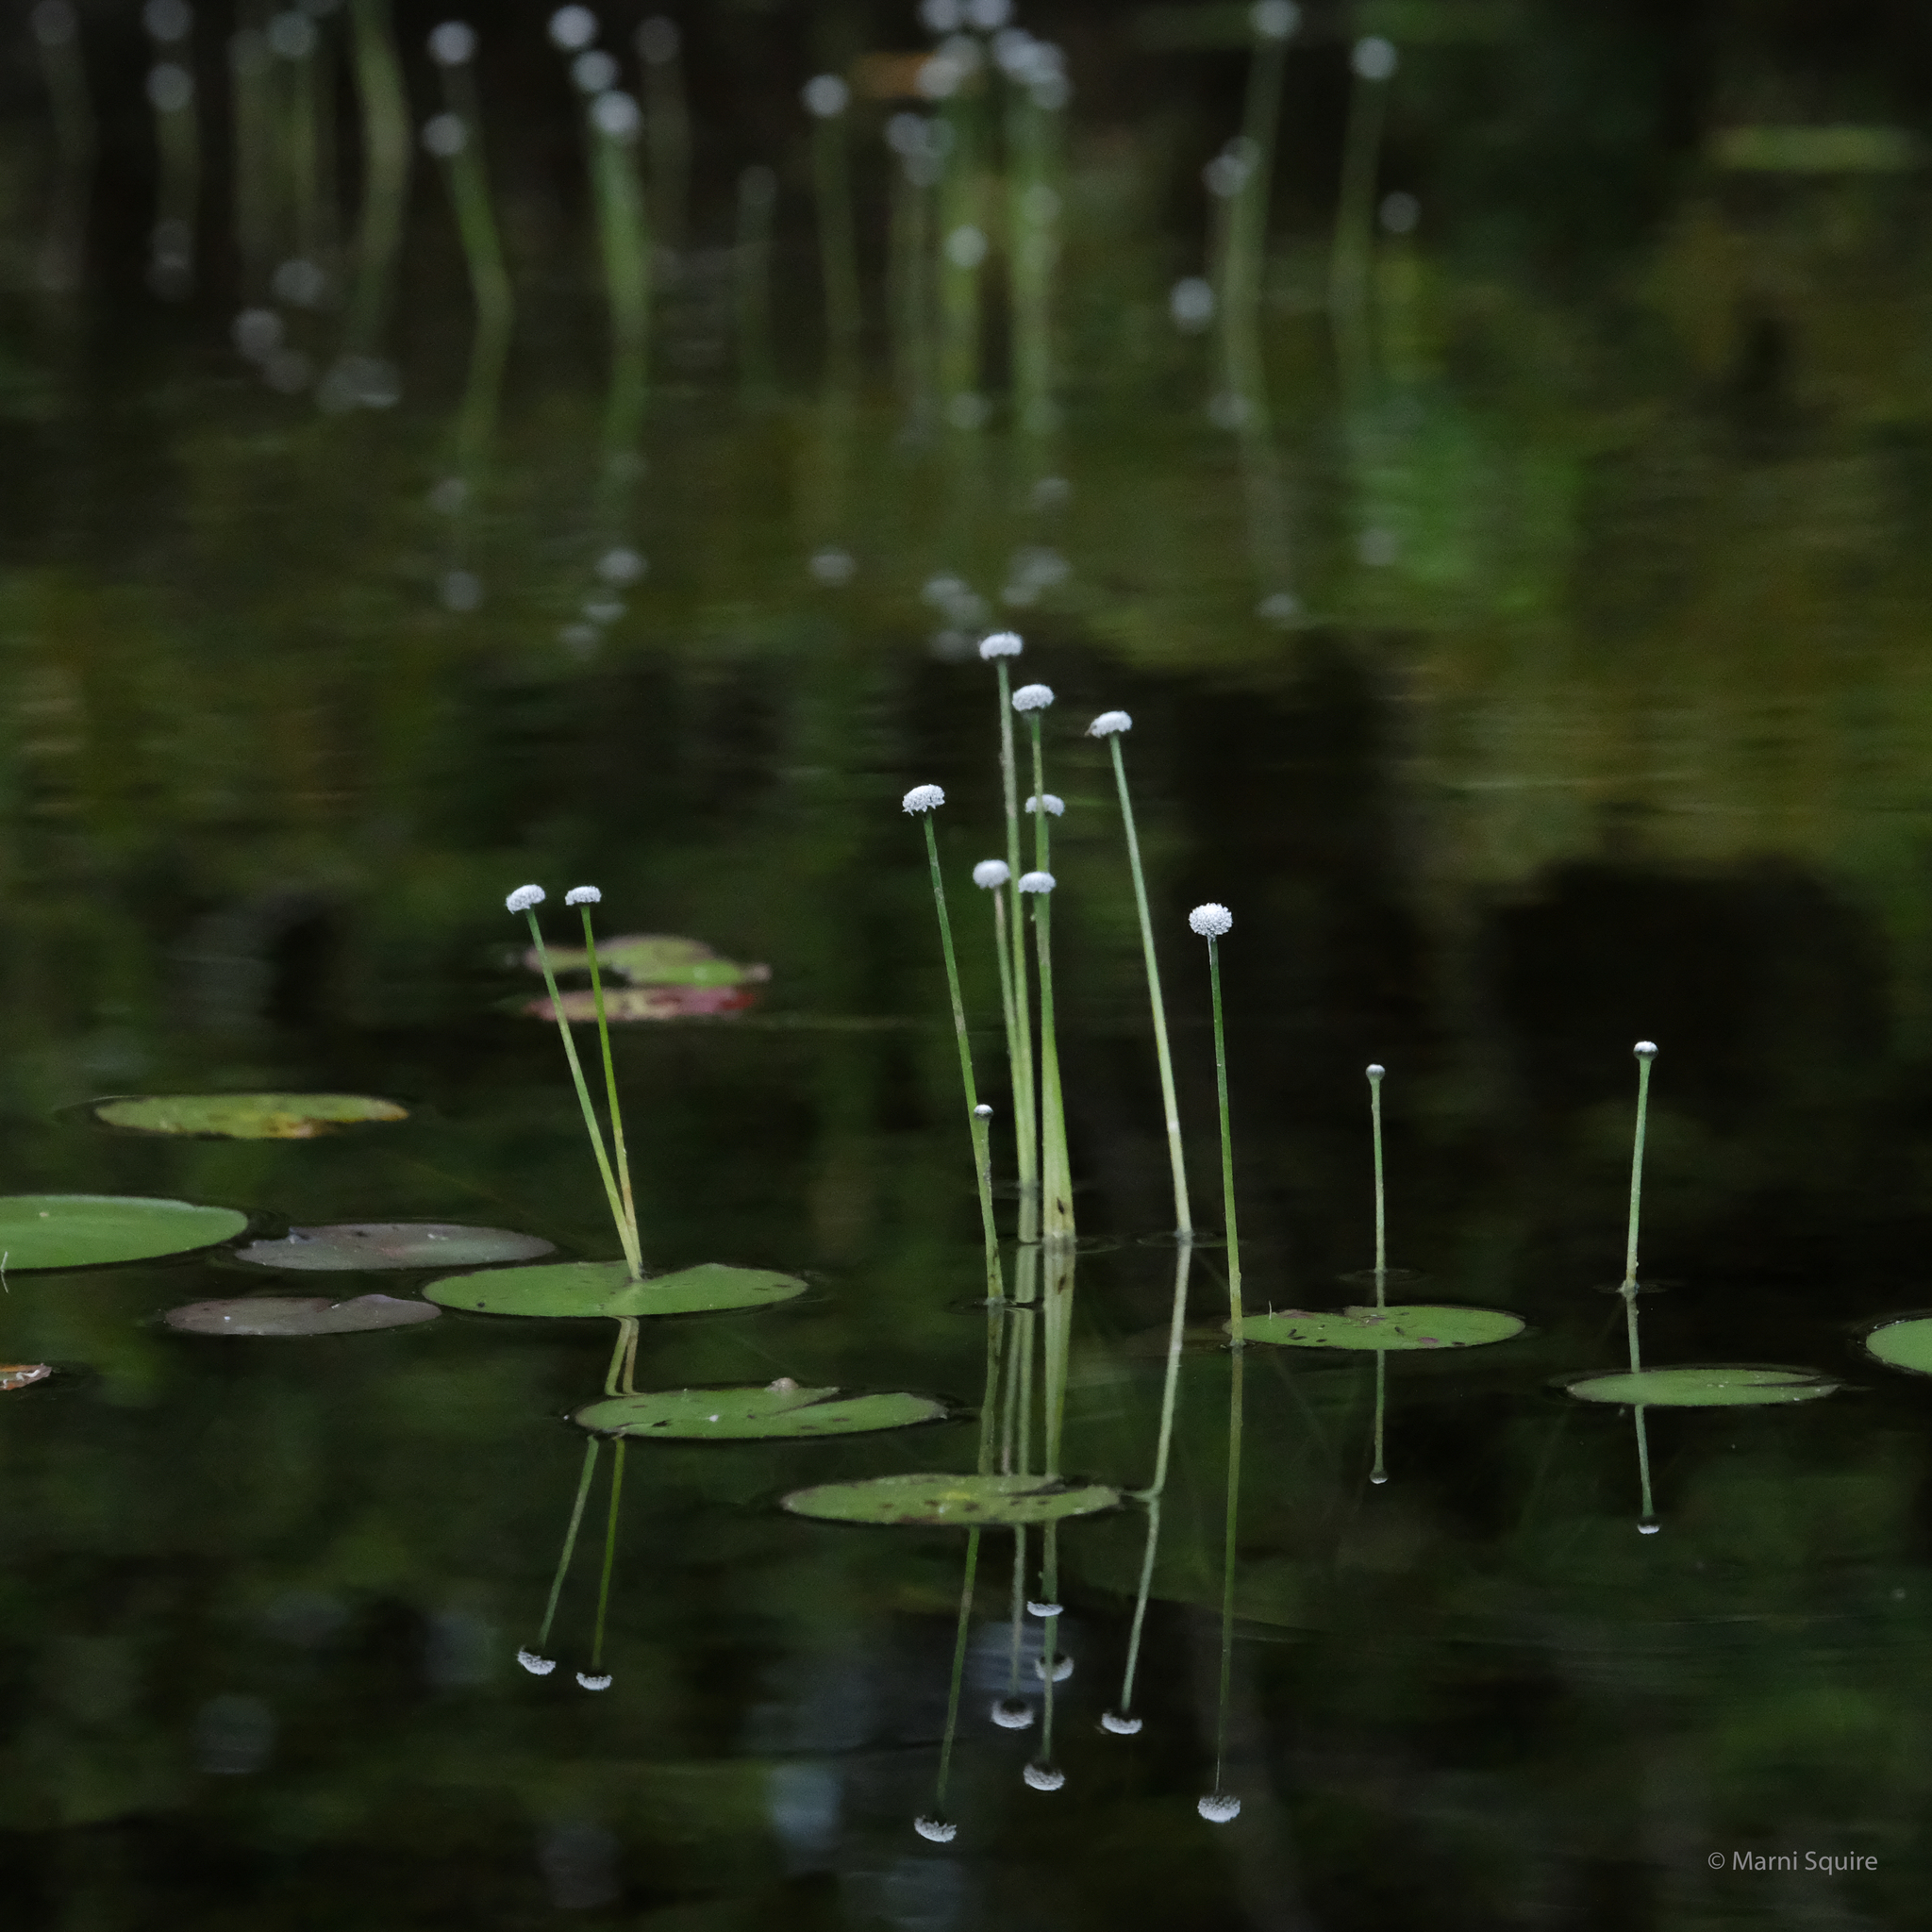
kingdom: Plantae
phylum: Tracheophyta
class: Liliopsida
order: Poales
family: Eriocaulaceae
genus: Eriocaulon
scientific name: Eriocaulon aquaticum
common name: Pipewort
